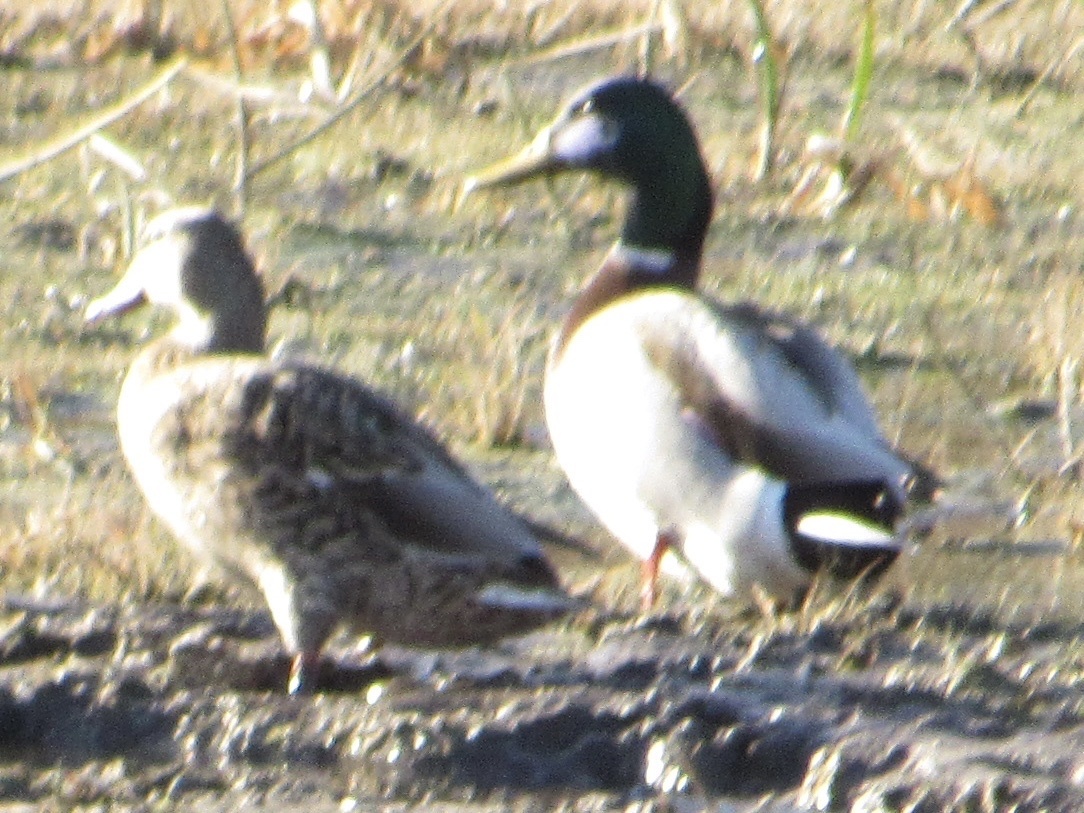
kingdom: Animalia
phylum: Chordata
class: Aves
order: Anseriformes
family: Anatidae
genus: Anas
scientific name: Anas platyrhynchos
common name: Mallard
